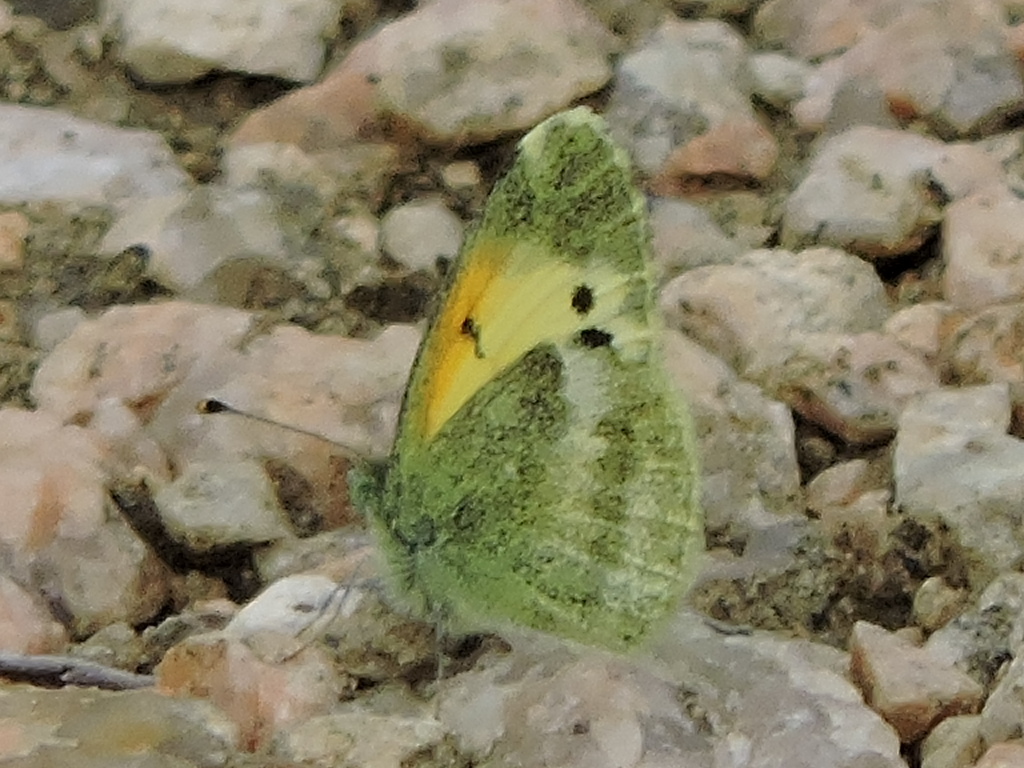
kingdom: Animalia
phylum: Arthropoda
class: Insecta
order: Lepidoptera
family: Pieridae
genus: Nathalis
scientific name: Nathalis iole
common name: Dainty sulphur
